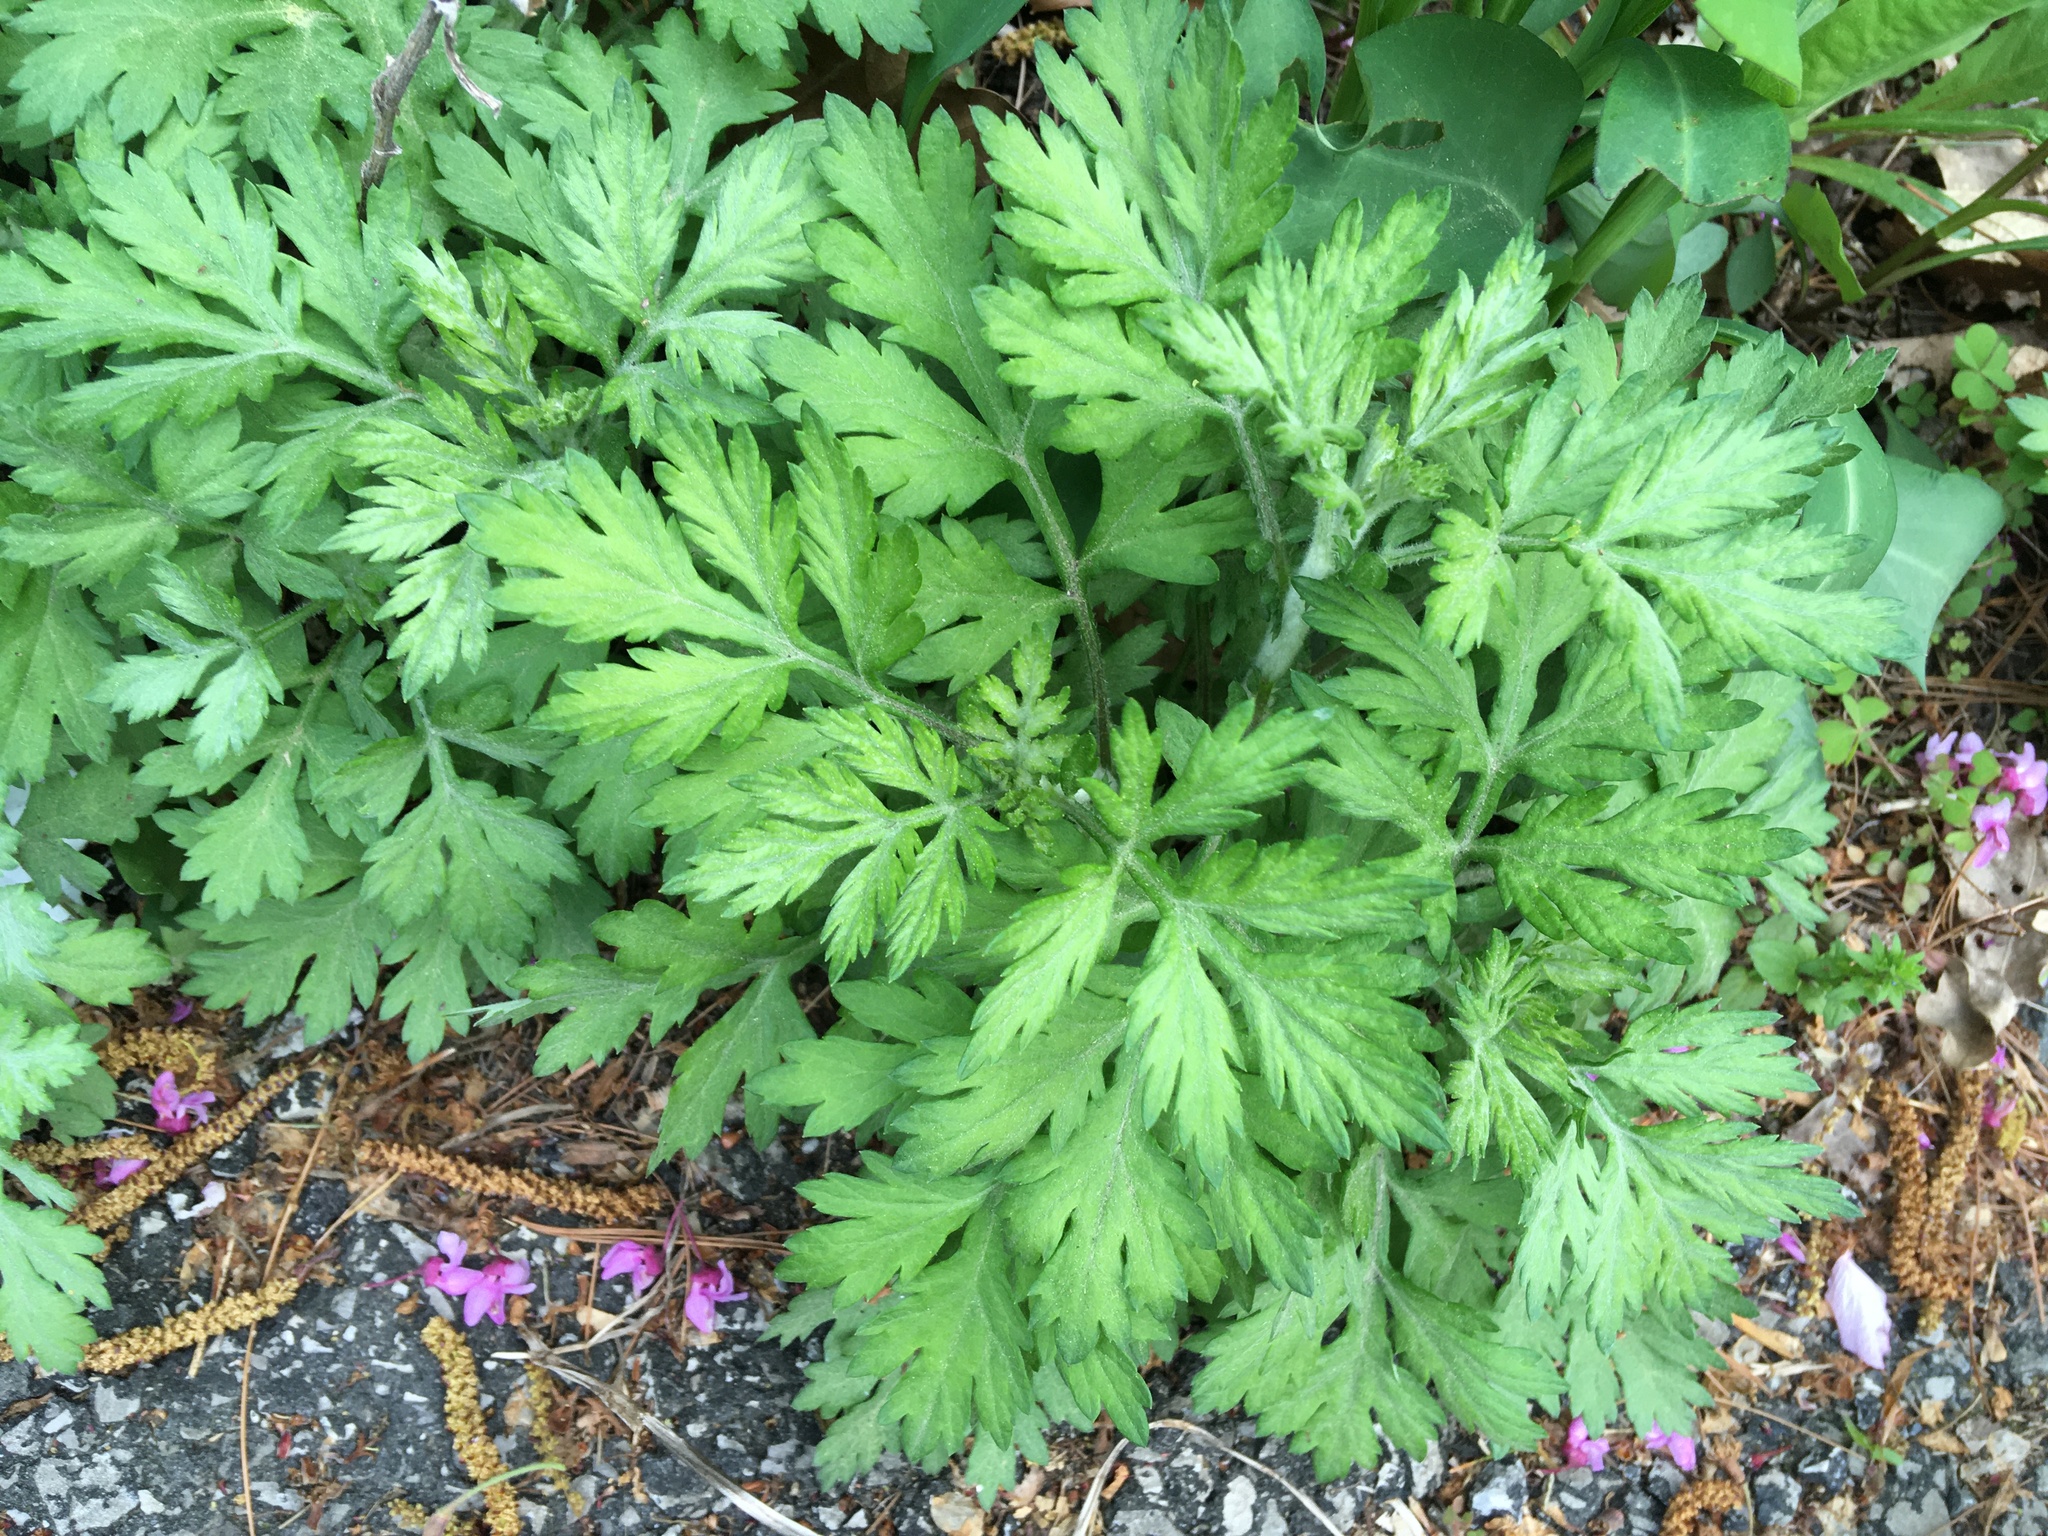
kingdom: Plantae
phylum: Tracheophyta
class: Magnoliopsida
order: Asterales
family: Asteraceae
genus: Artemisia
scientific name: Artemisia vulgaris
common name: Mugwort
